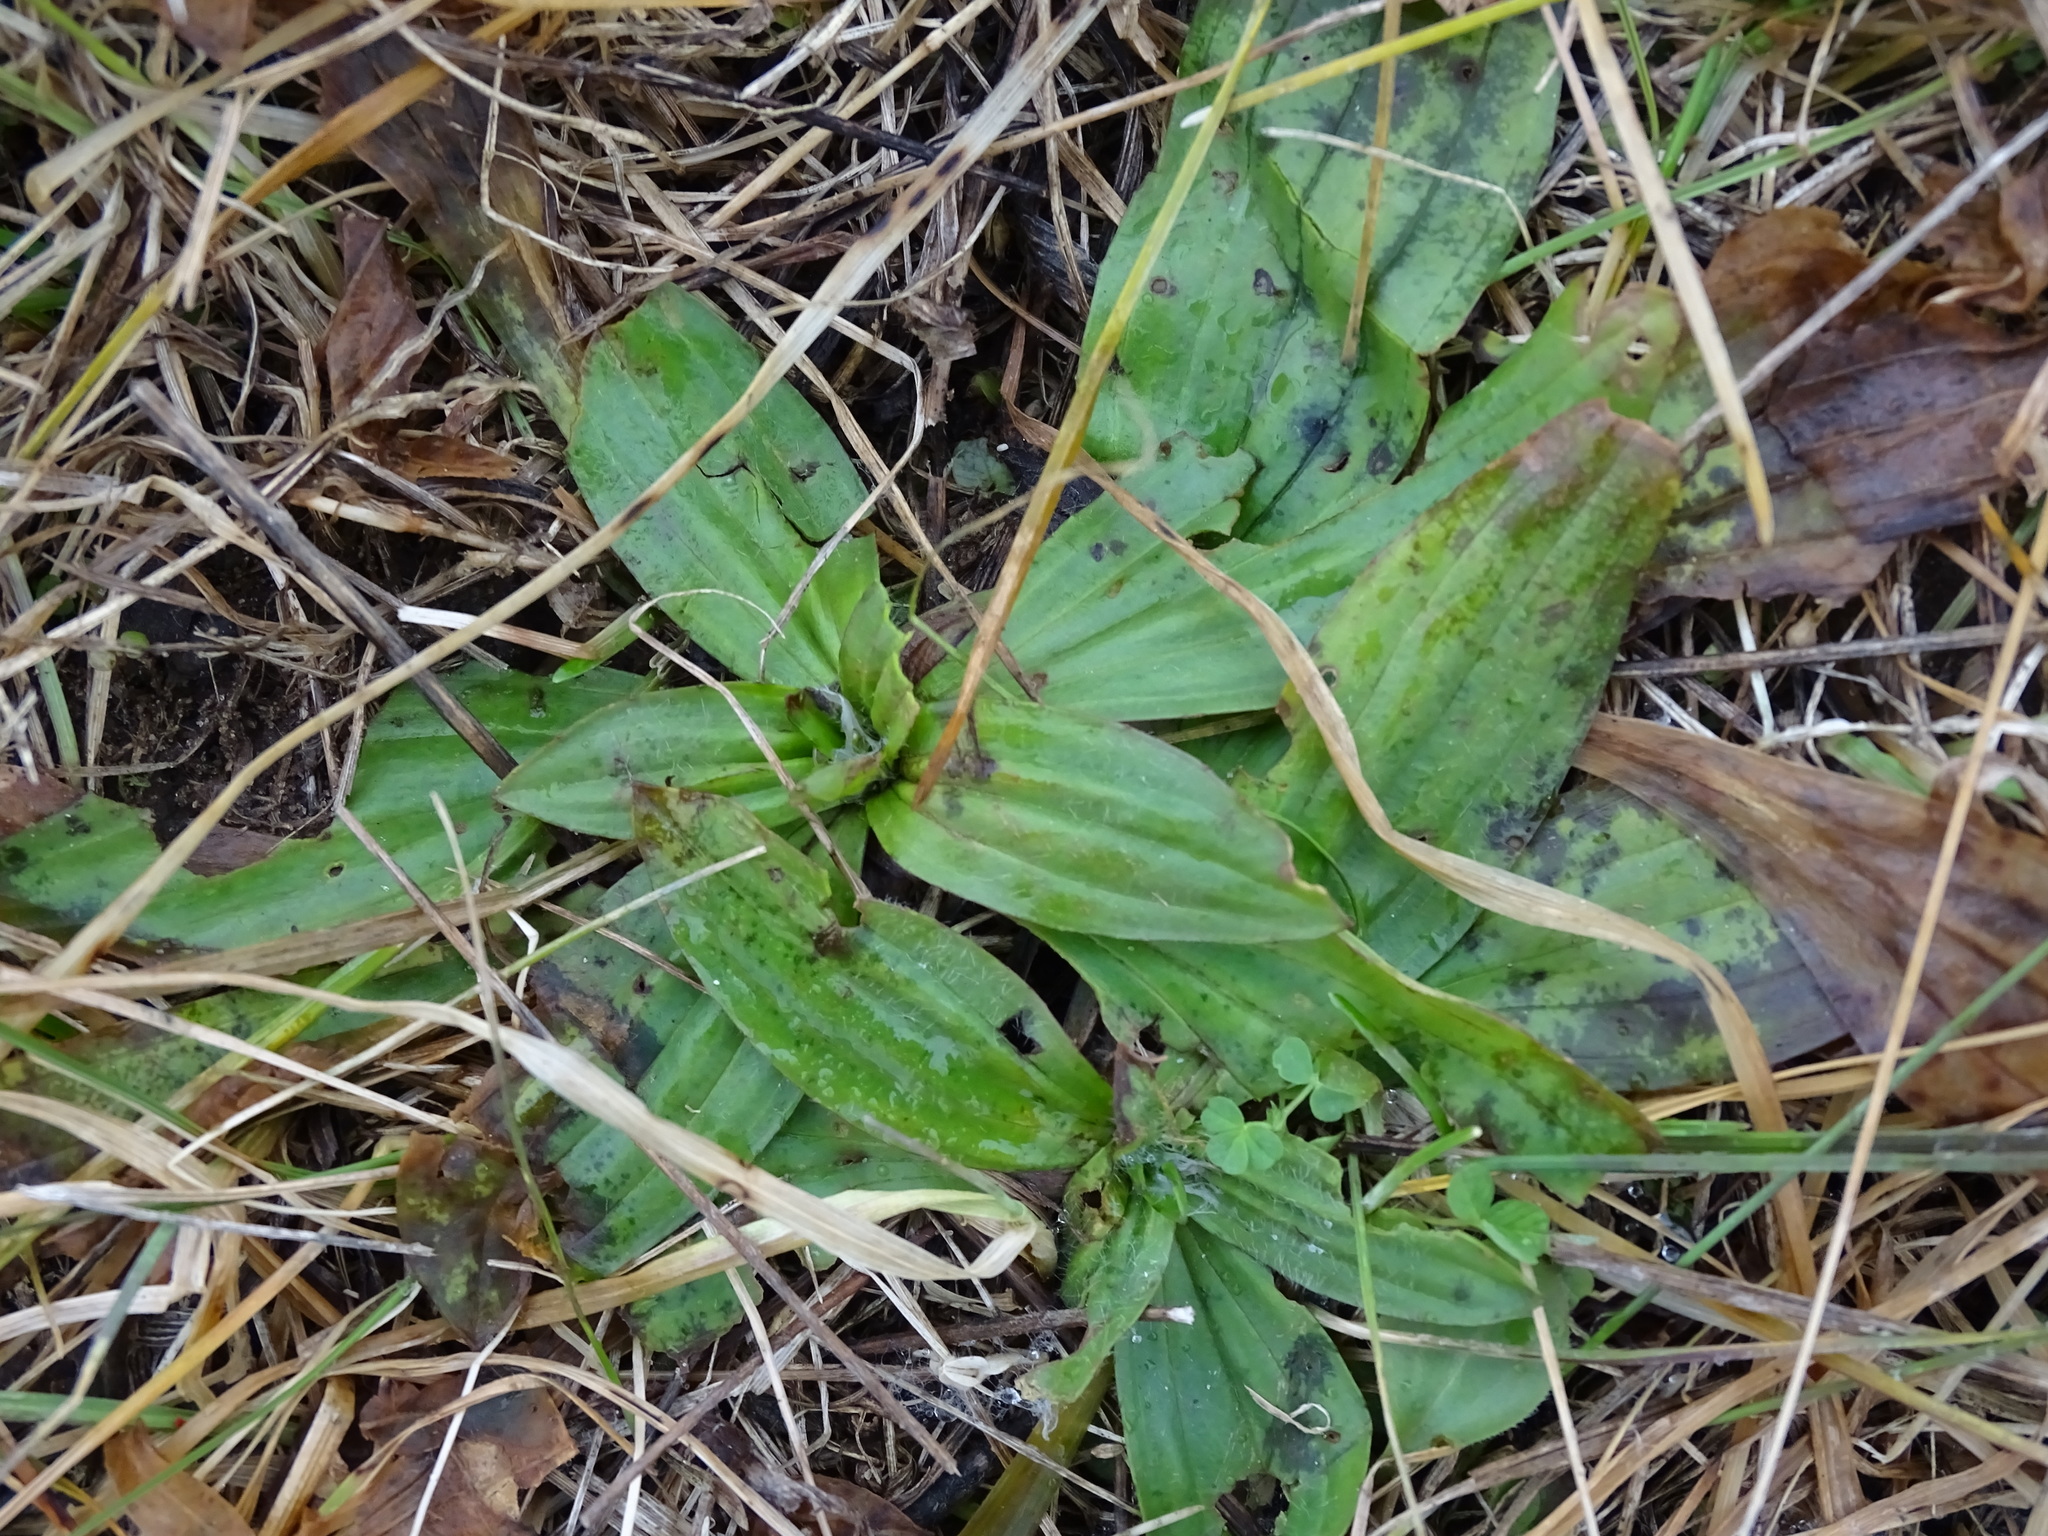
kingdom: Plantae
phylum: Tracheophyta
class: Magnoliopsida
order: Lamiales
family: Plantaginaceae
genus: Plantago
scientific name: Plantago lanceolata
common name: Ribwort plantain
